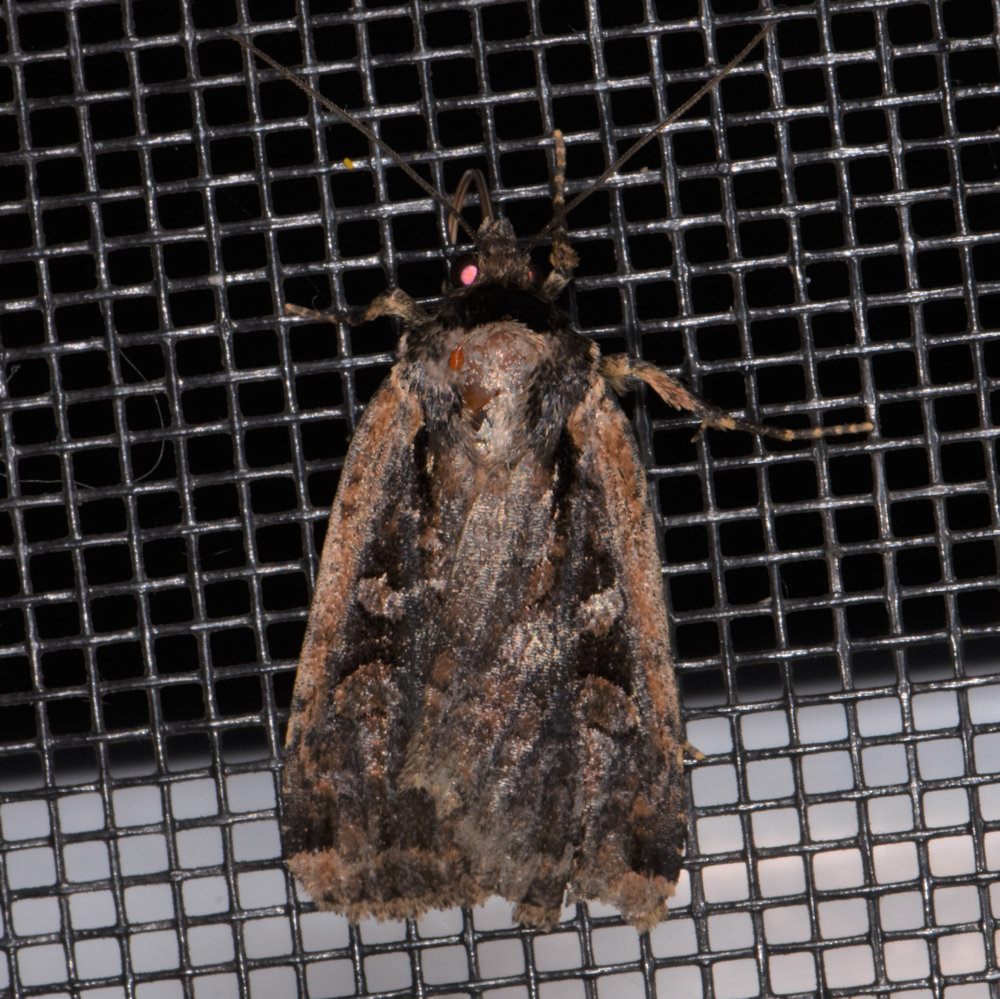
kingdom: Animalia
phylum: Arthropoda
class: Insecta
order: Lepidoptera
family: Noctuidae
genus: Eueretagrotis
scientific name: Eueretagrotis sigmoides
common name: Sigmoid dart
